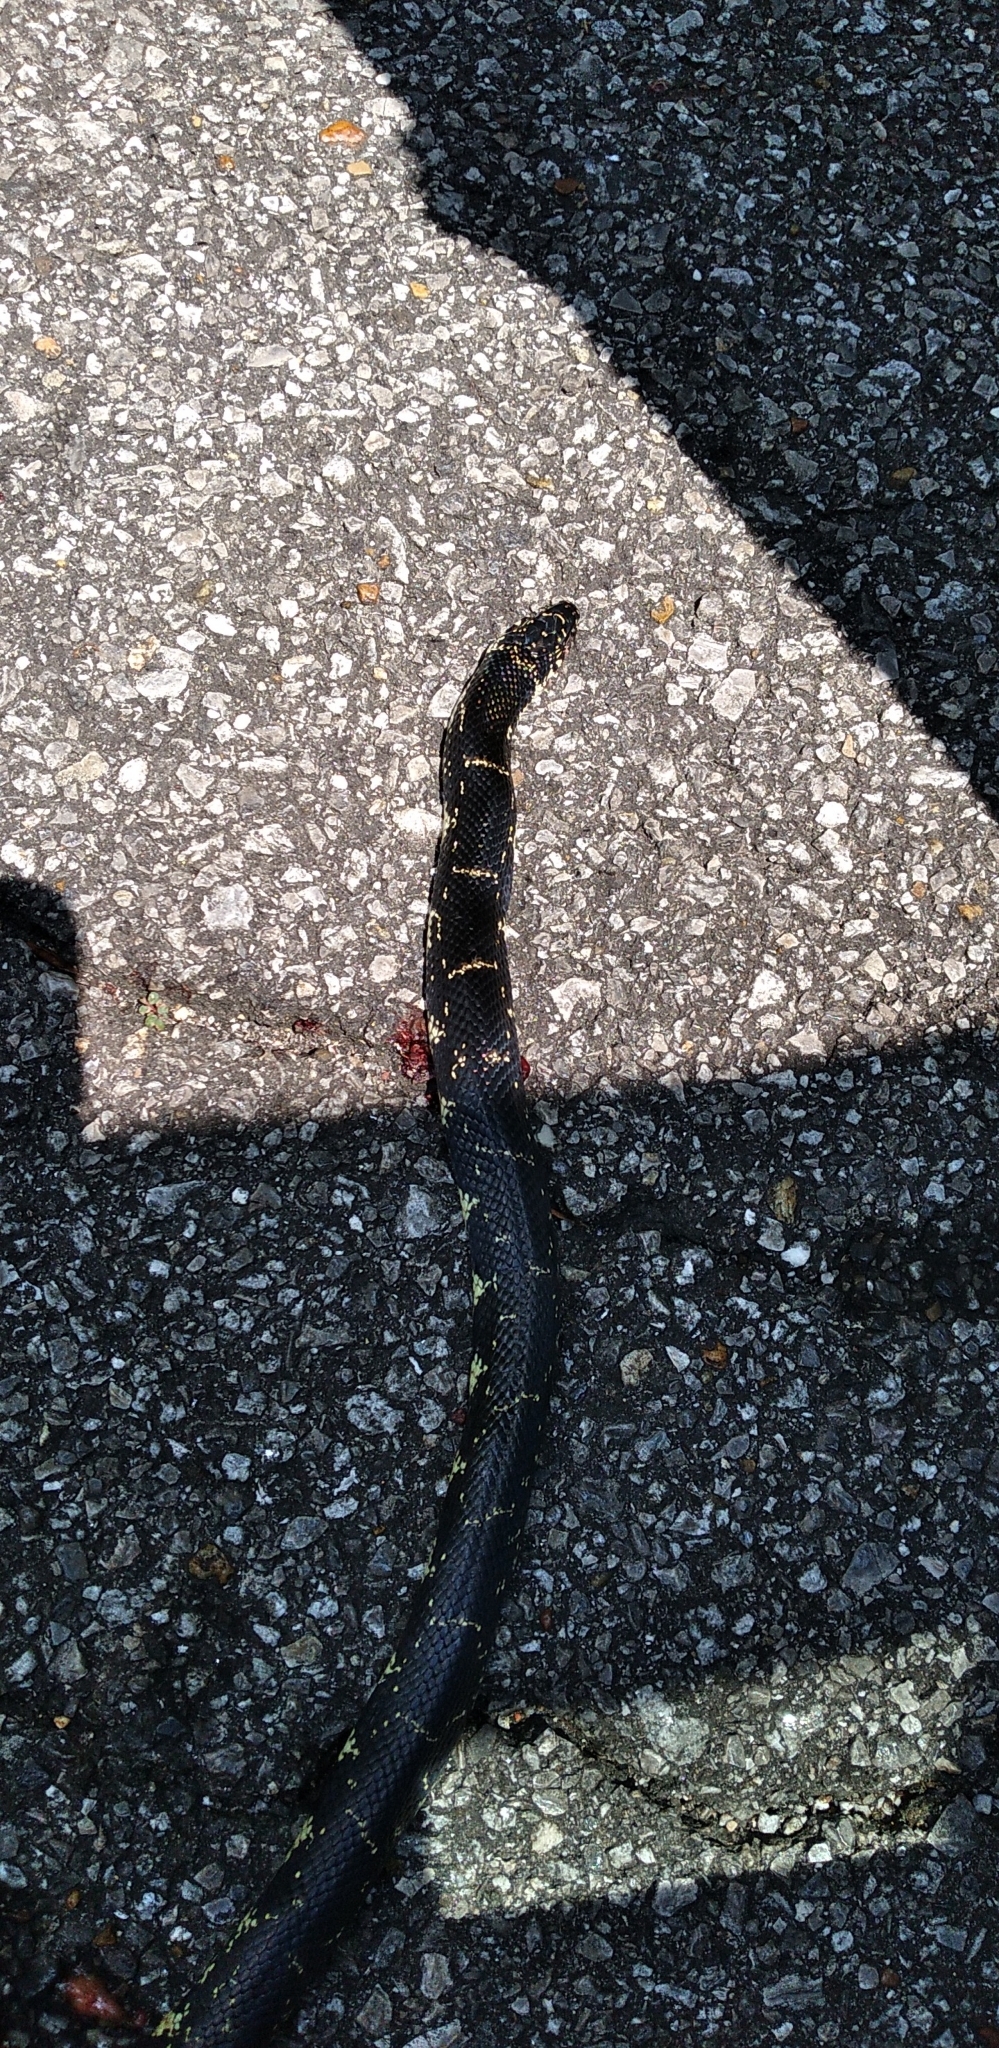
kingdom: Animalia
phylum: Chordata
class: Squamata
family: Colubridae
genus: Lampropeltis
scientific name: Lampropeltis getula
